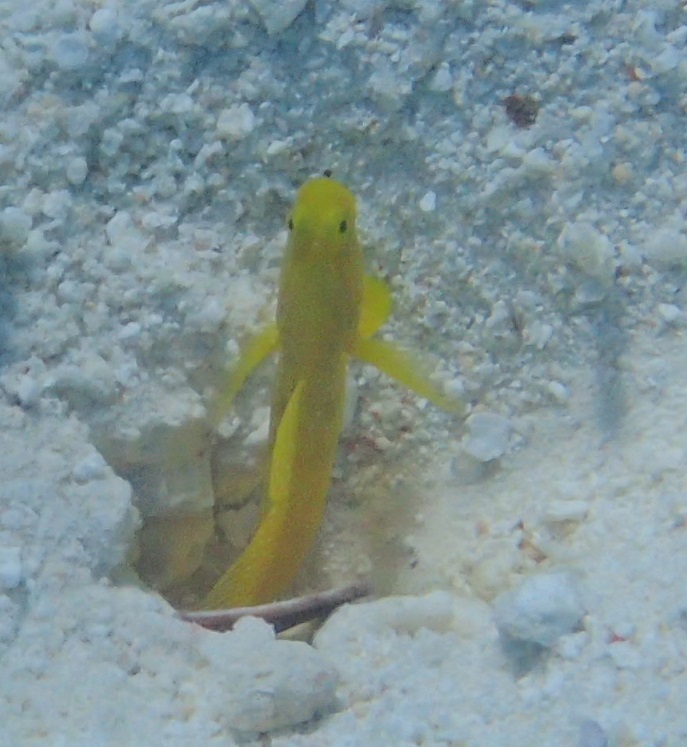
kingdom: Animalia
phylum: Chordata
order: Perciformes
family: Gobiidae
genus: Cryptocentrus
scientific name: Cryptocentrus cinctus
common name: Yellow shrimp goby
